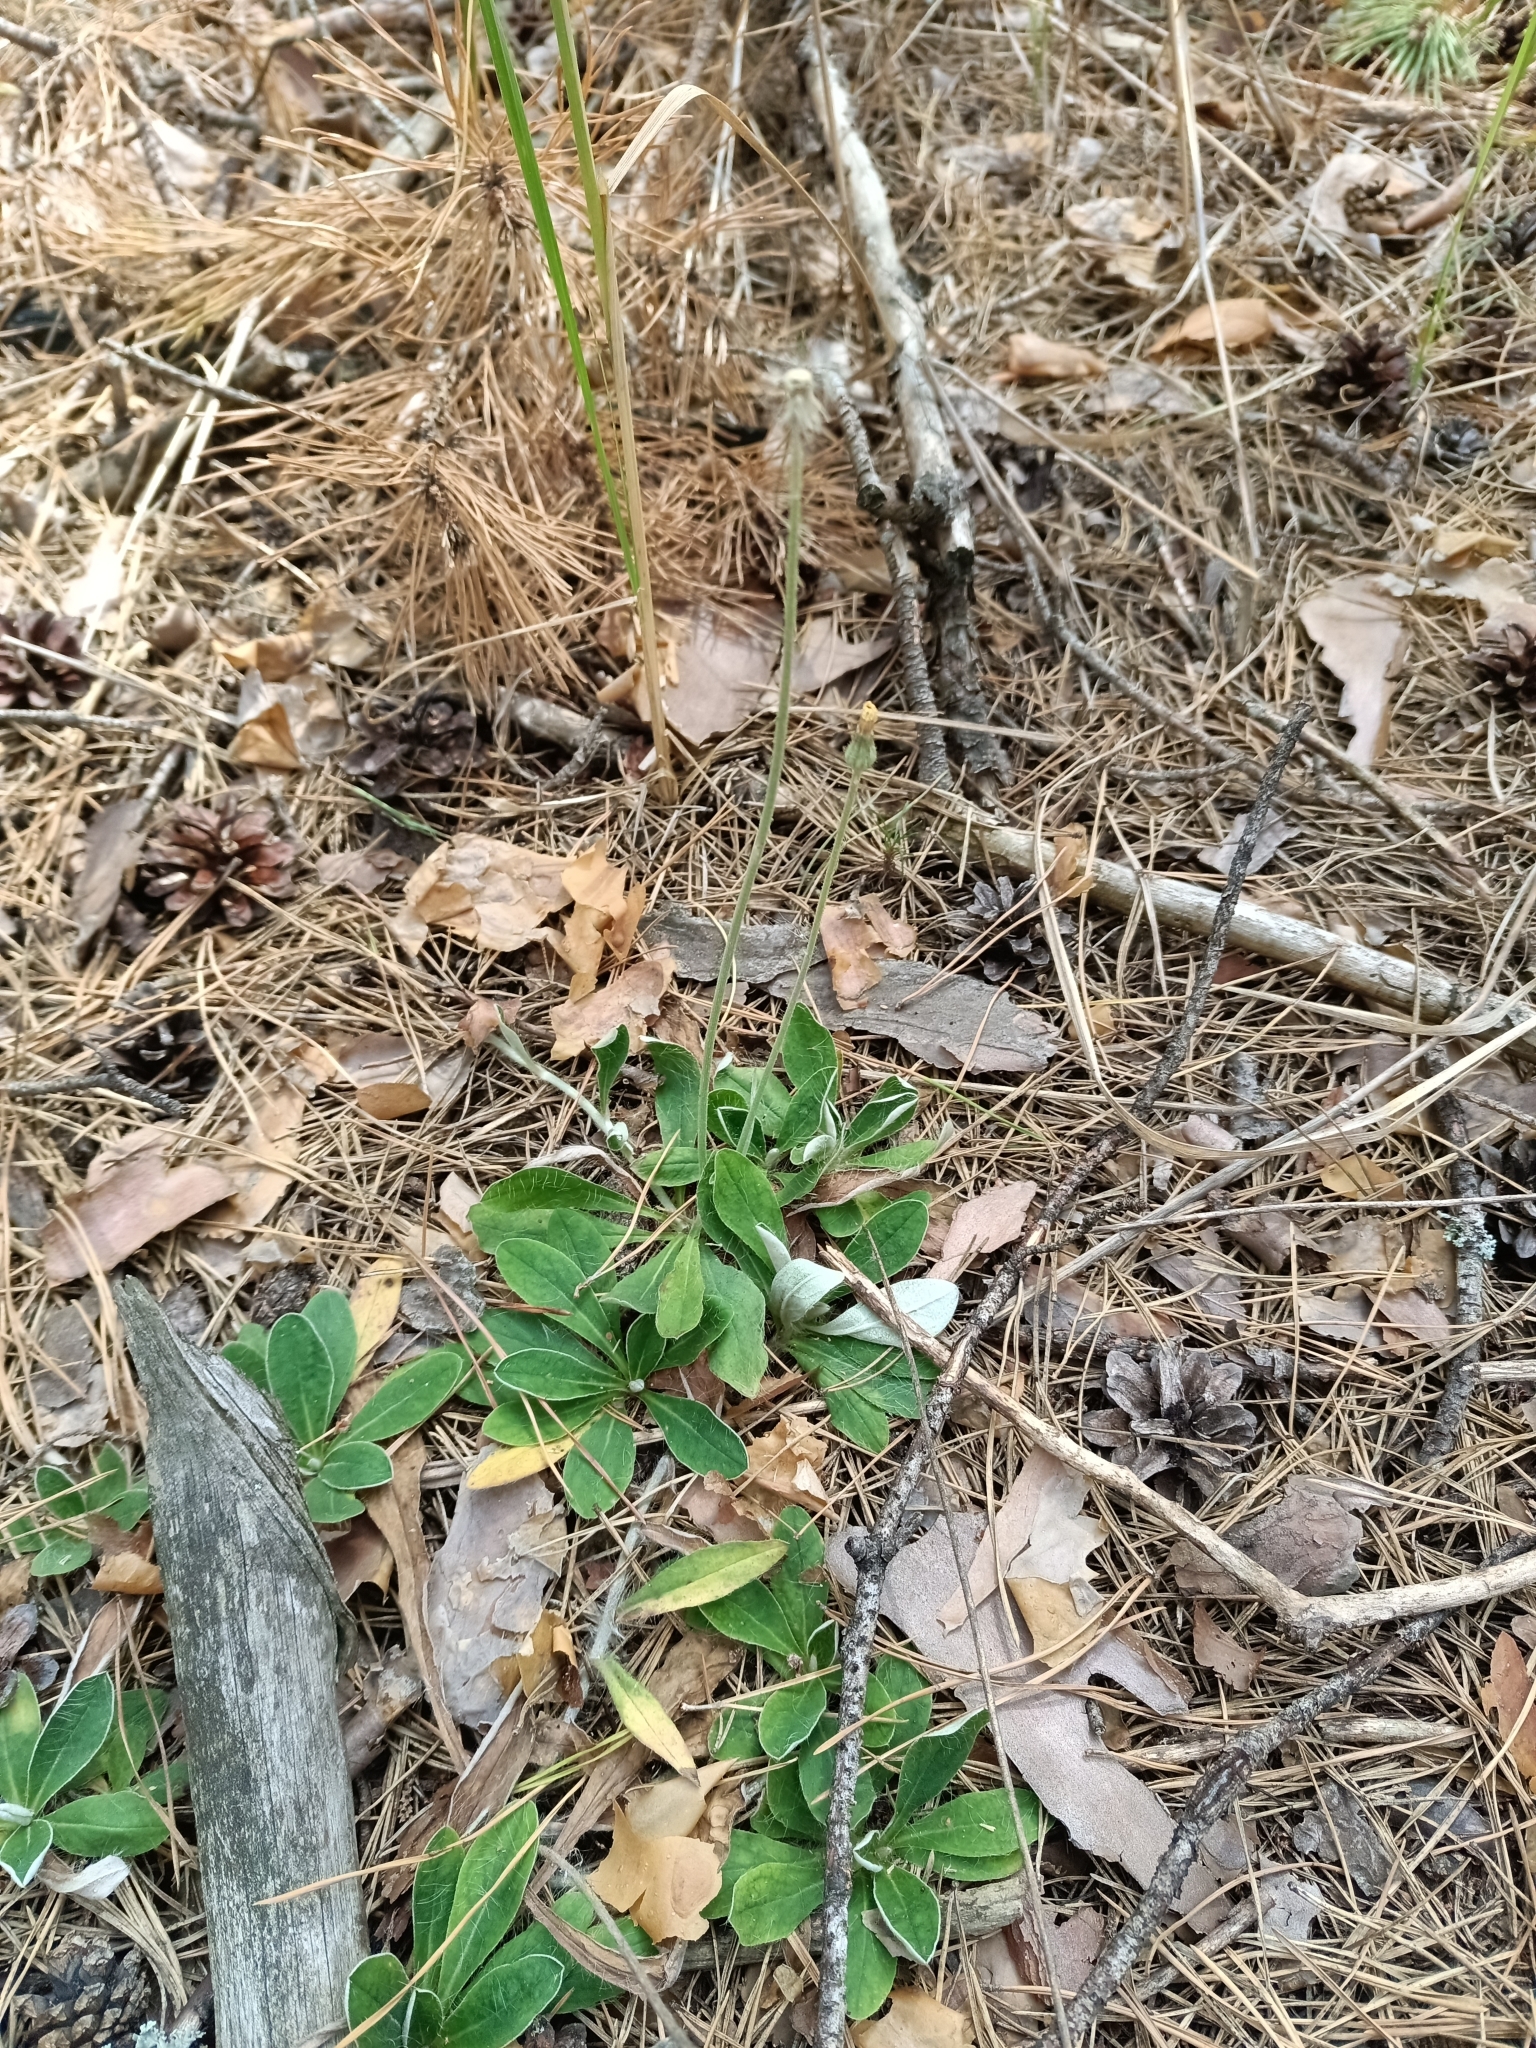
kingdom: Plantae
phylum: Tracheophyta
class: Magnoliopsida
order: Asterales
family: Asteraceae
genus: Pilosella
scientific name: Pilosella officinarum
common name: Mouse-ear hawkweed
